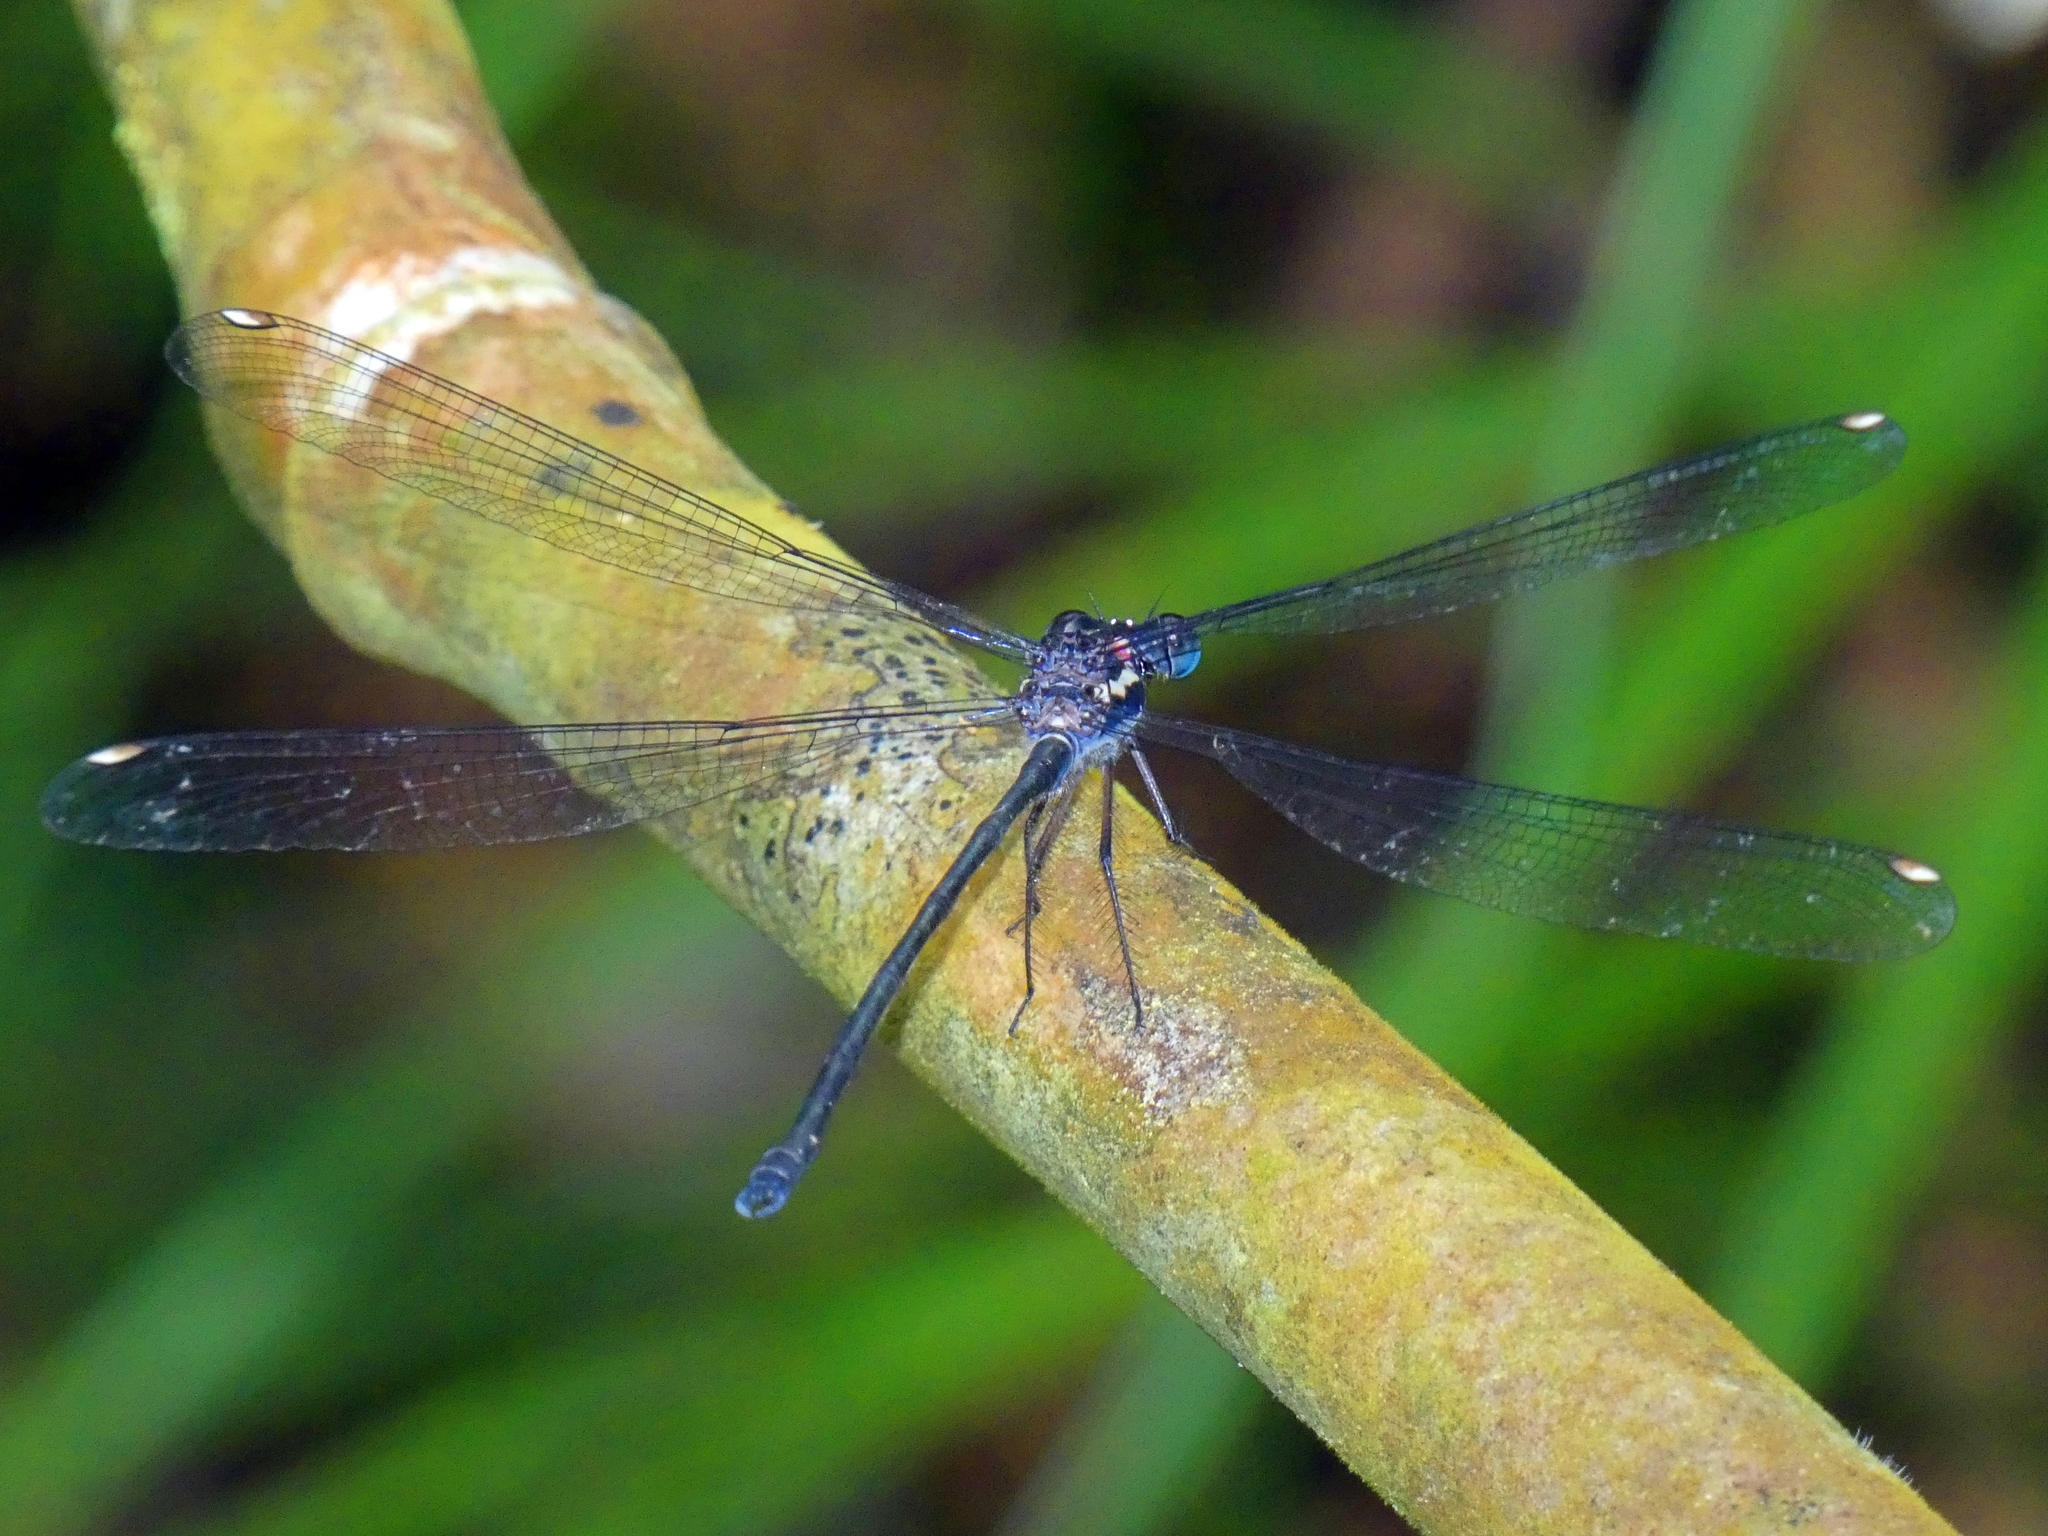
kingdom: Animalia
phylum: Arthropoda
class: Insecta
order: Odonata
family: Argiolestidae
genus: Podopteryx
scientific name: Podopteryx selysi
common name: Treehole flatwing
